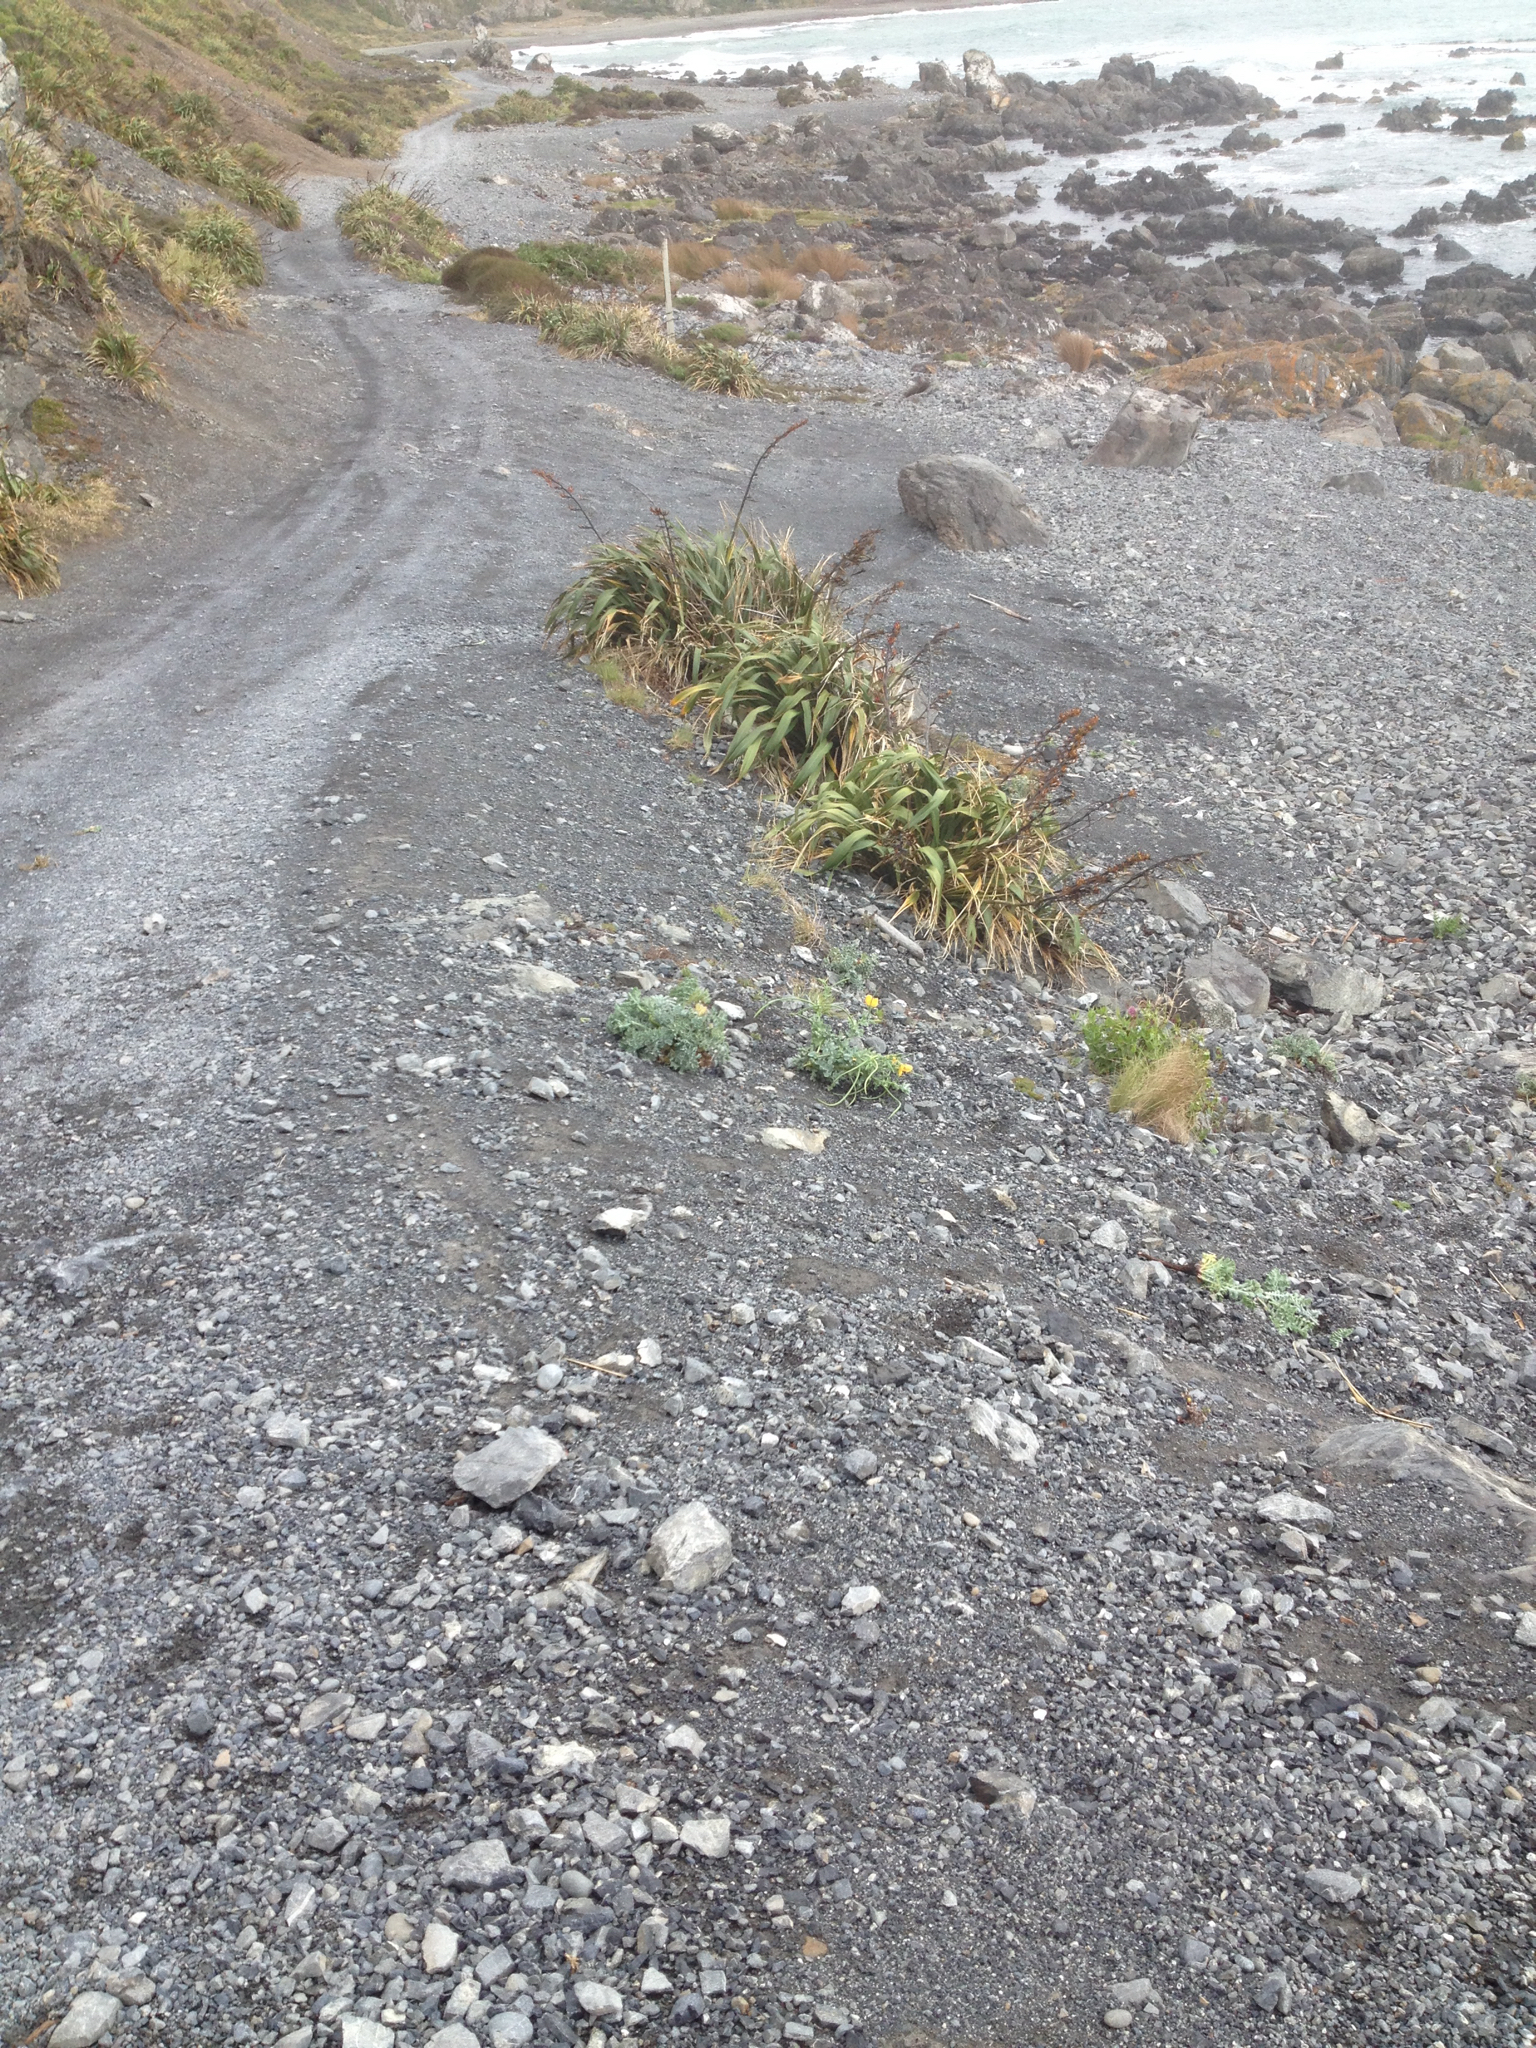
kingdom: Plantae
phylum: Tracheophyta
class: Magnoliopsida
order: Ranunculales
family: Papaveraceae
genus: Glaucium
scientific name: Glaucium flavum
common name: Yellow horned-poppy
